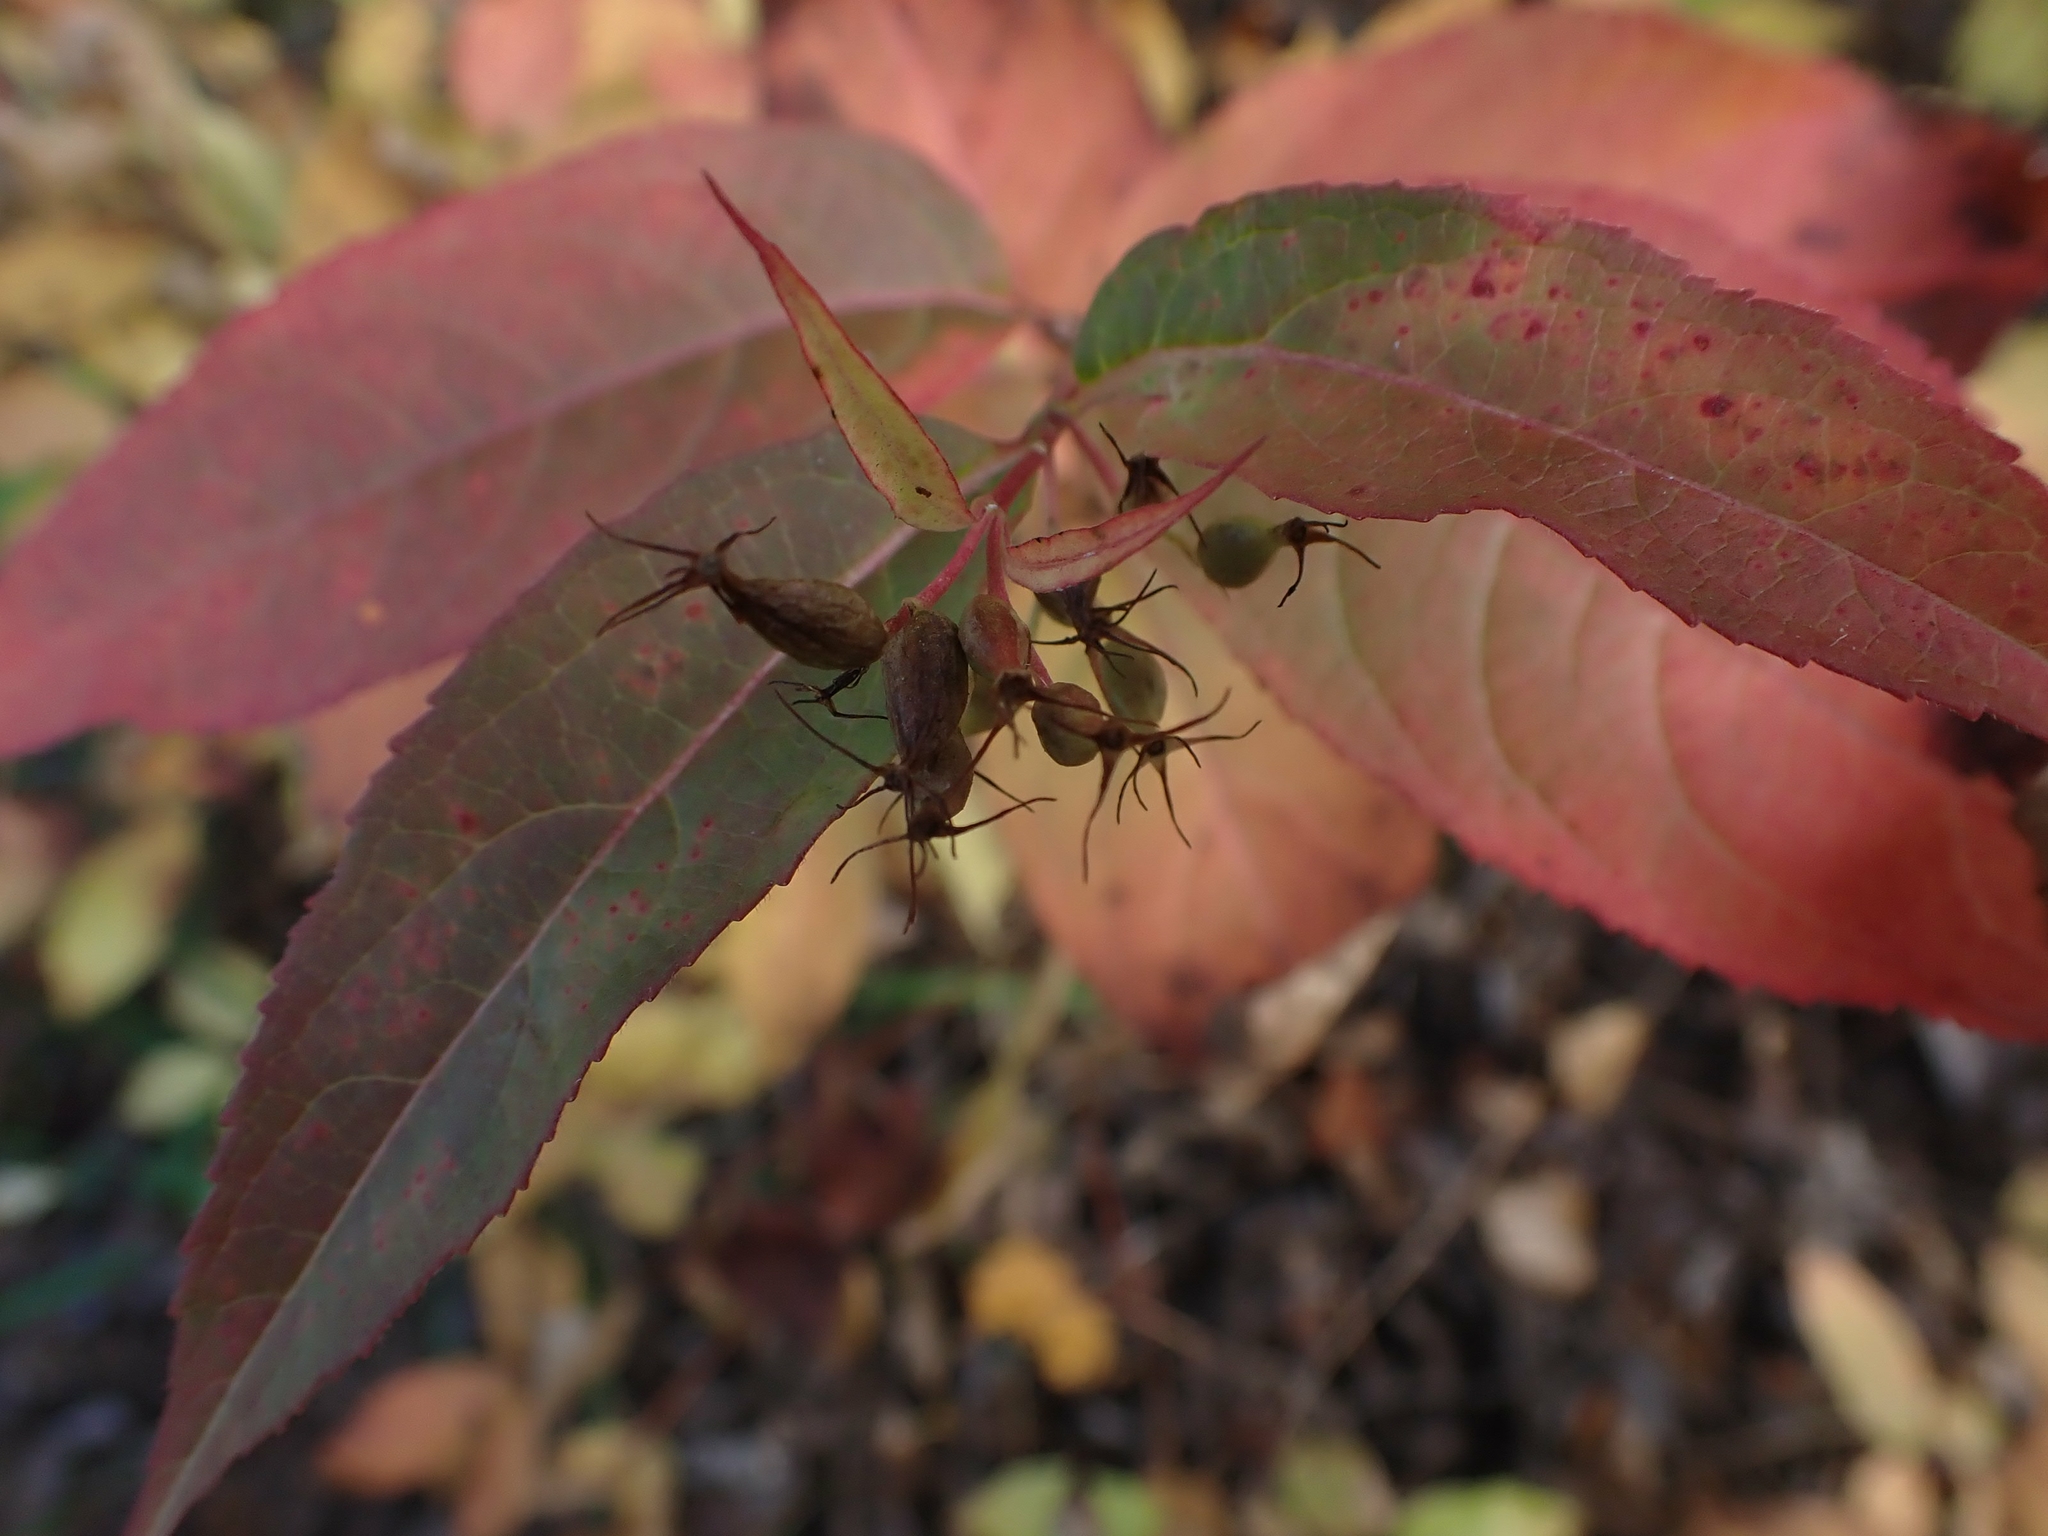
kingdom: Plantae
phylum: Tracheophyta
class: Magnoliopsida
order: Dipsacales
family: Caprifoliaceae
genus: Diervilla
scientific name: Diervilla lonicera
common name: Bush-honeysuckle
